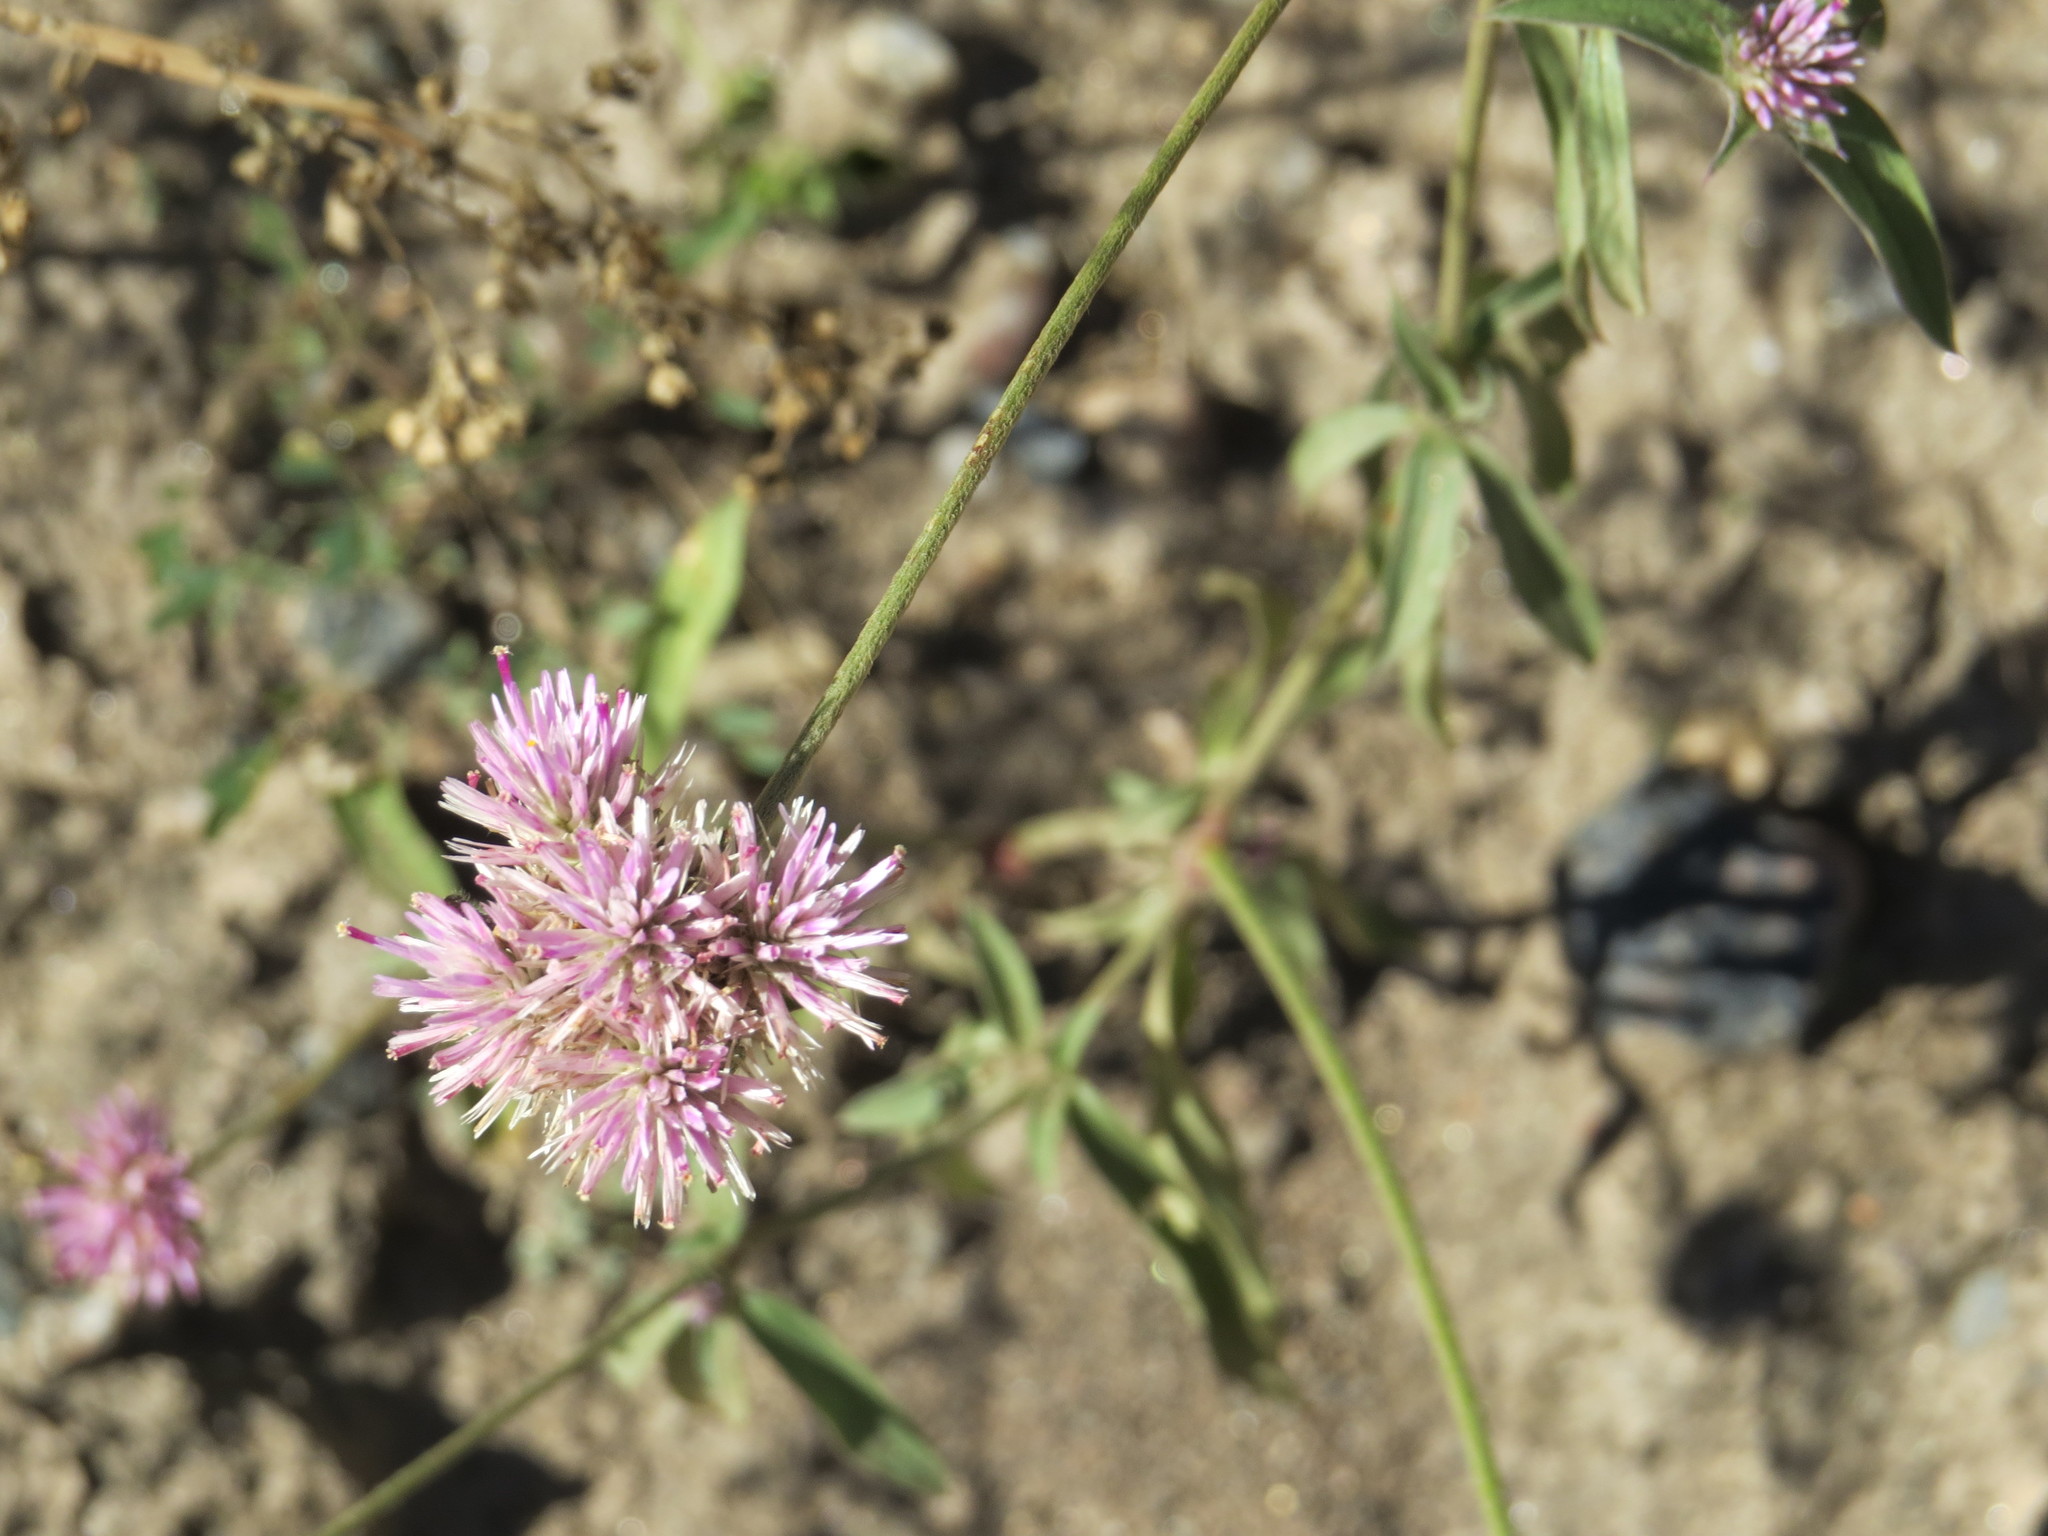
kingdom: Plantae
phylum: Tracheophyta
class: Magnoliopsida
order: Caryophyllales
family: Amaranthaceae
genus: Gomphrena
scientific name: Gomphrena pulchella
